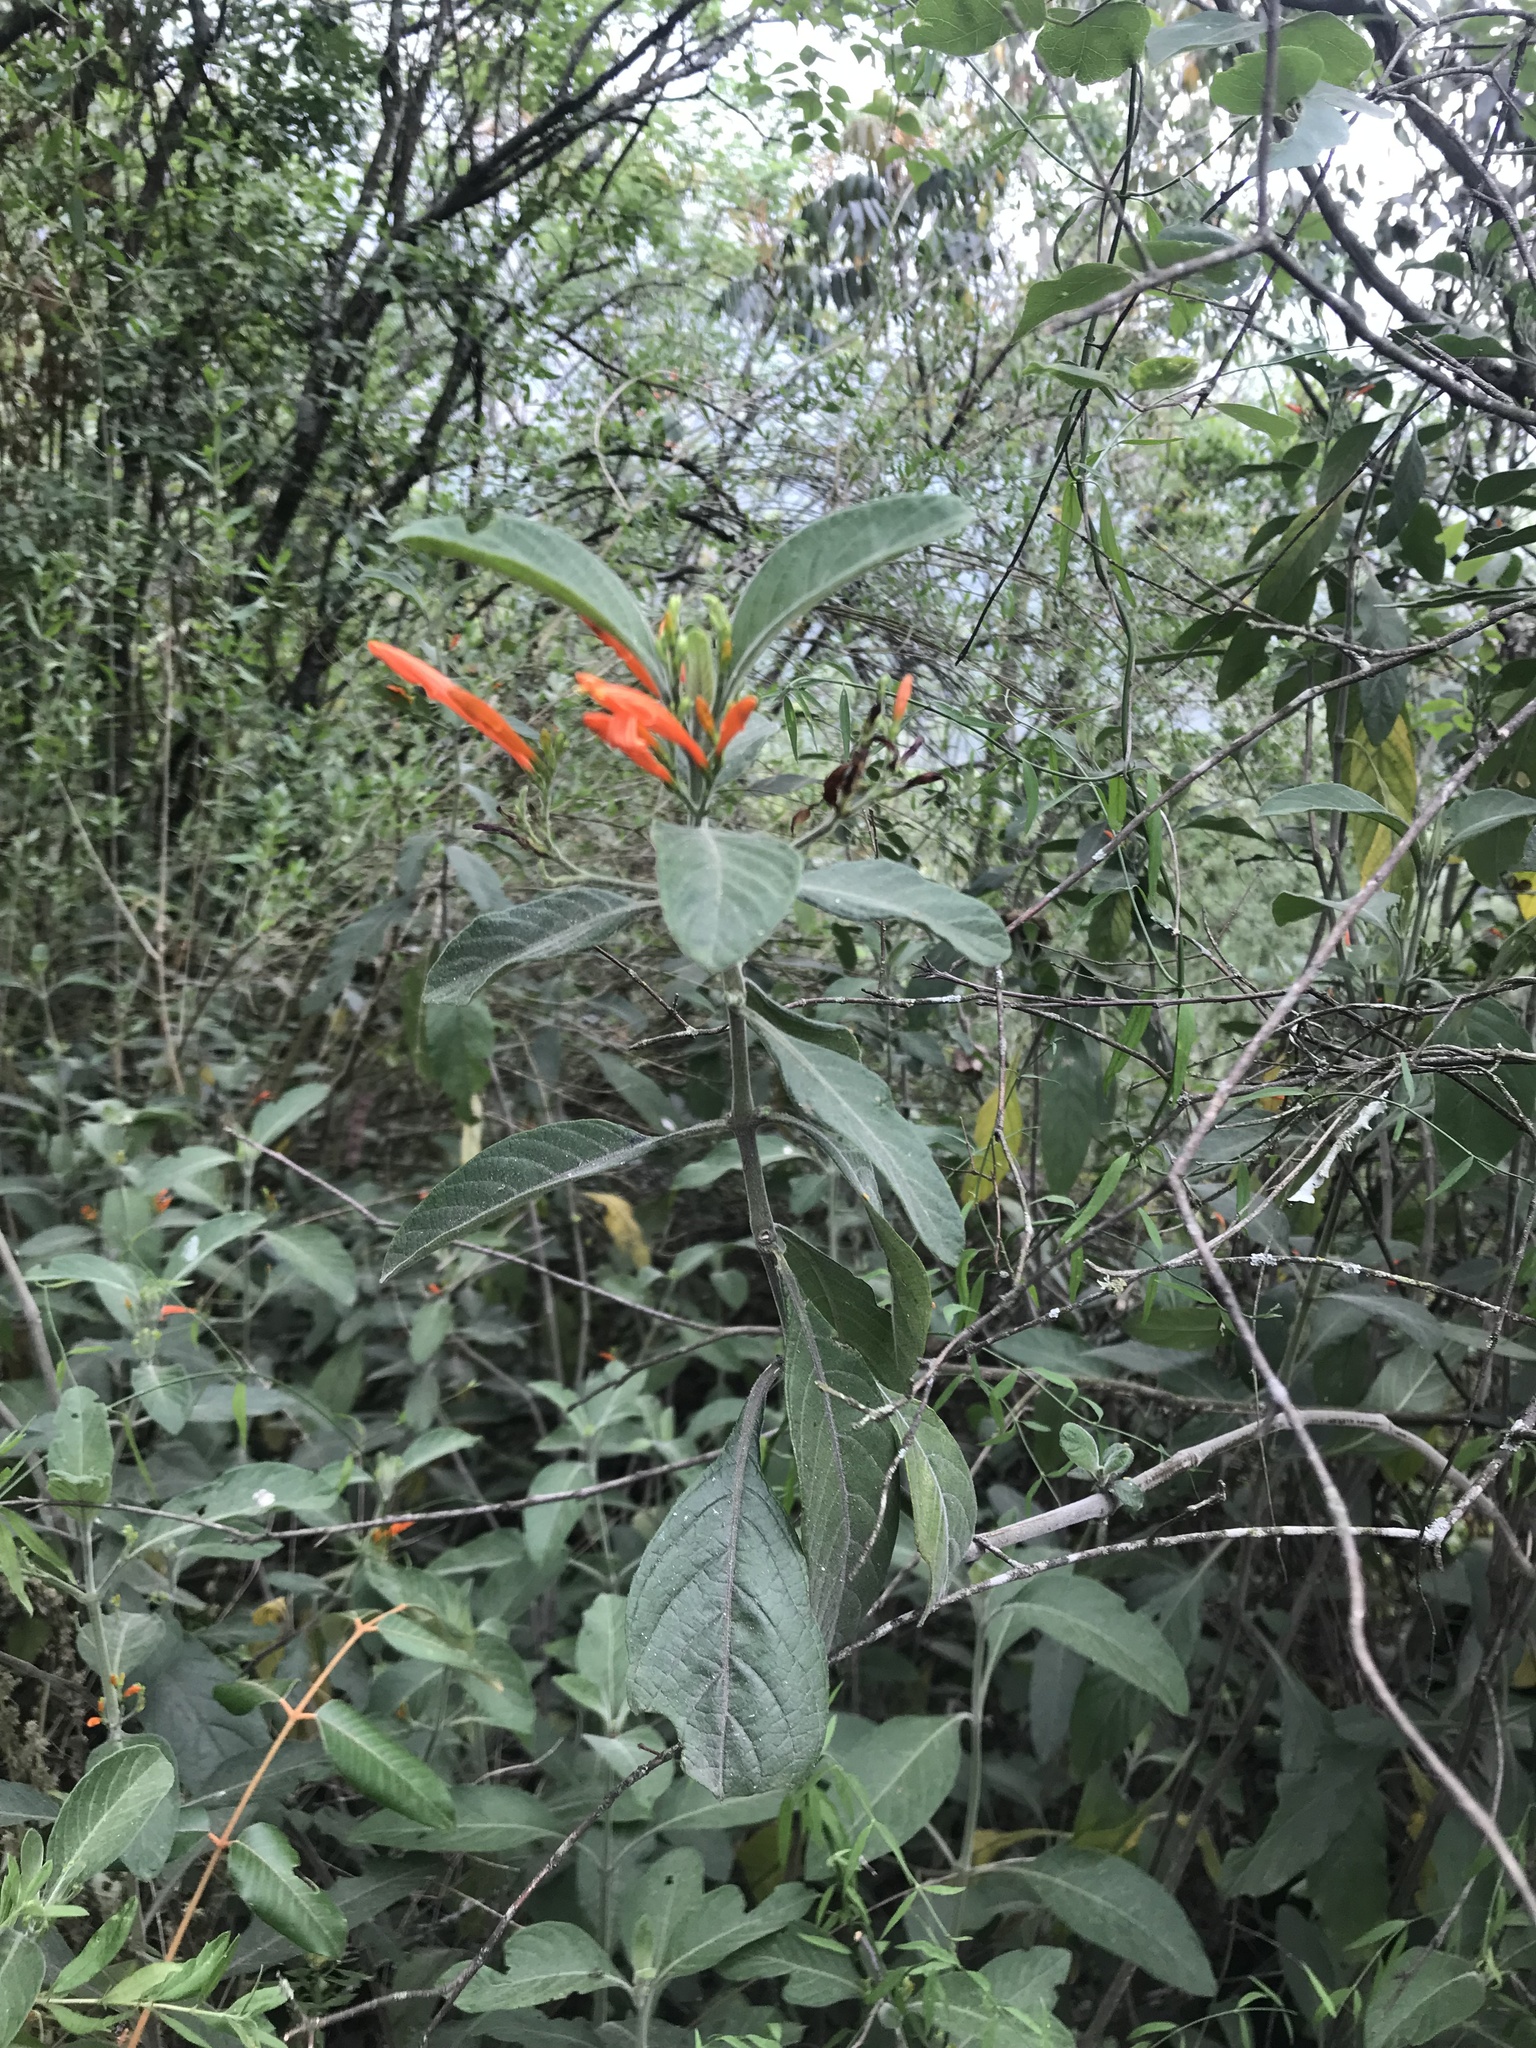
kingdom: Plantae
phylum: Tracheophyta
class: Magnoliopsida
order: Lamiales
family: Acanthaceae
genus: Justicia
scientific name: Justicia spicigera
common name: Mohintli
